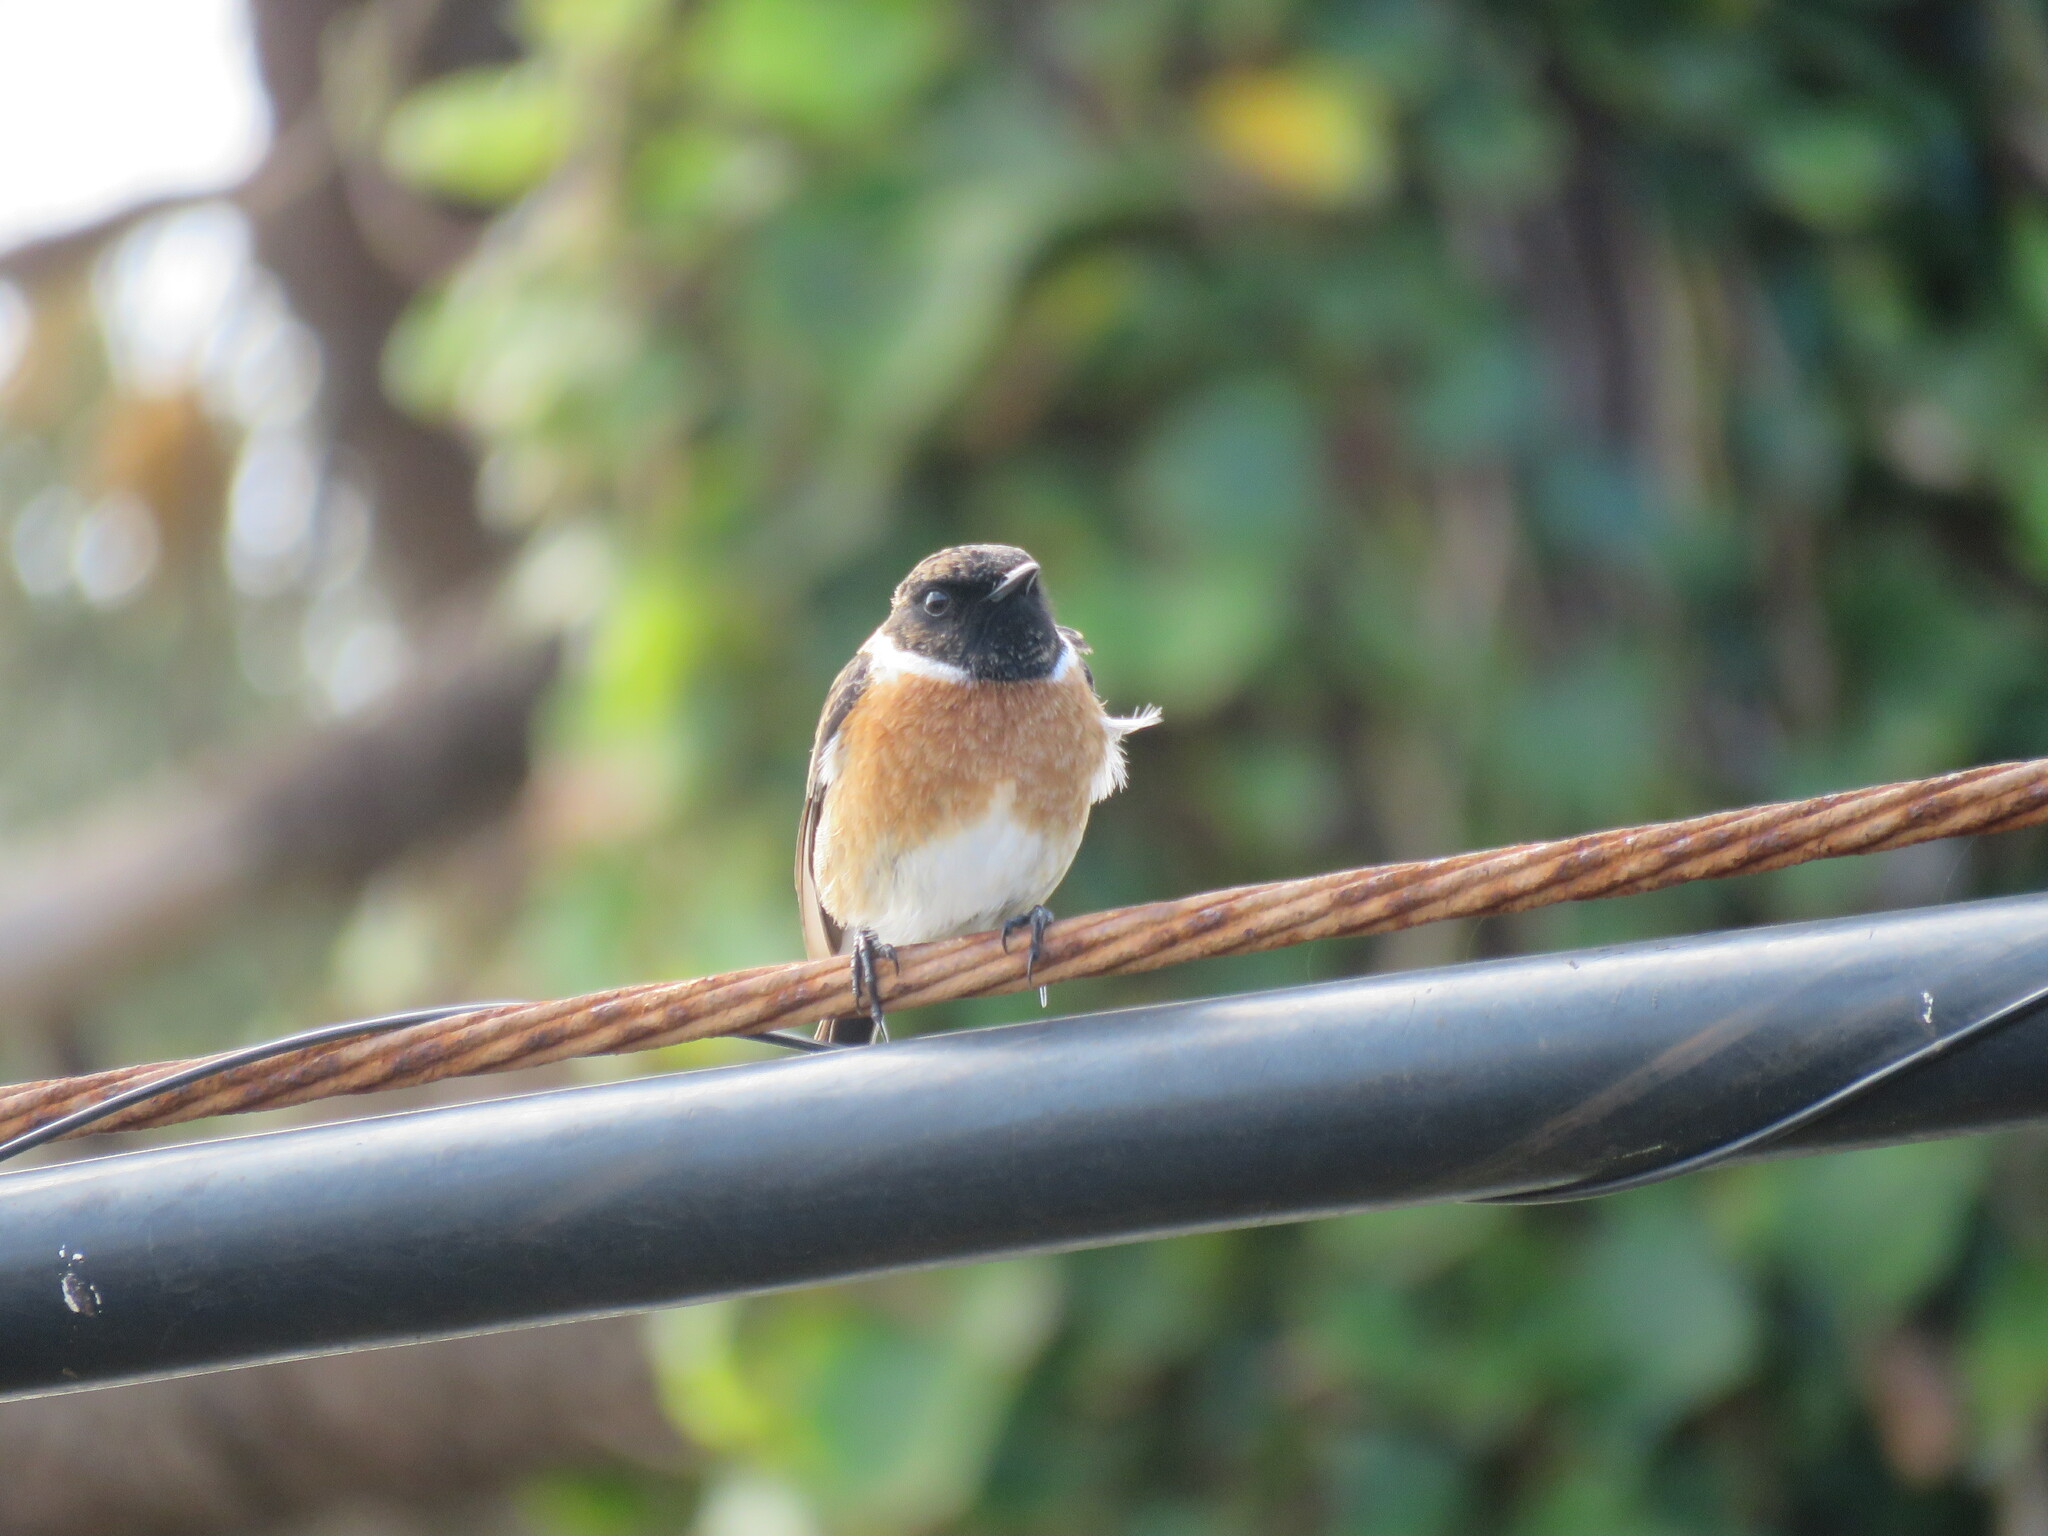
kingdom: Animalia
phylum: Chordata
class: Aves
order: Passeriformes
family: Muscicapidae
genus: Saxicola
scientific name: Saxicola rubicola
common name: European stonechat
